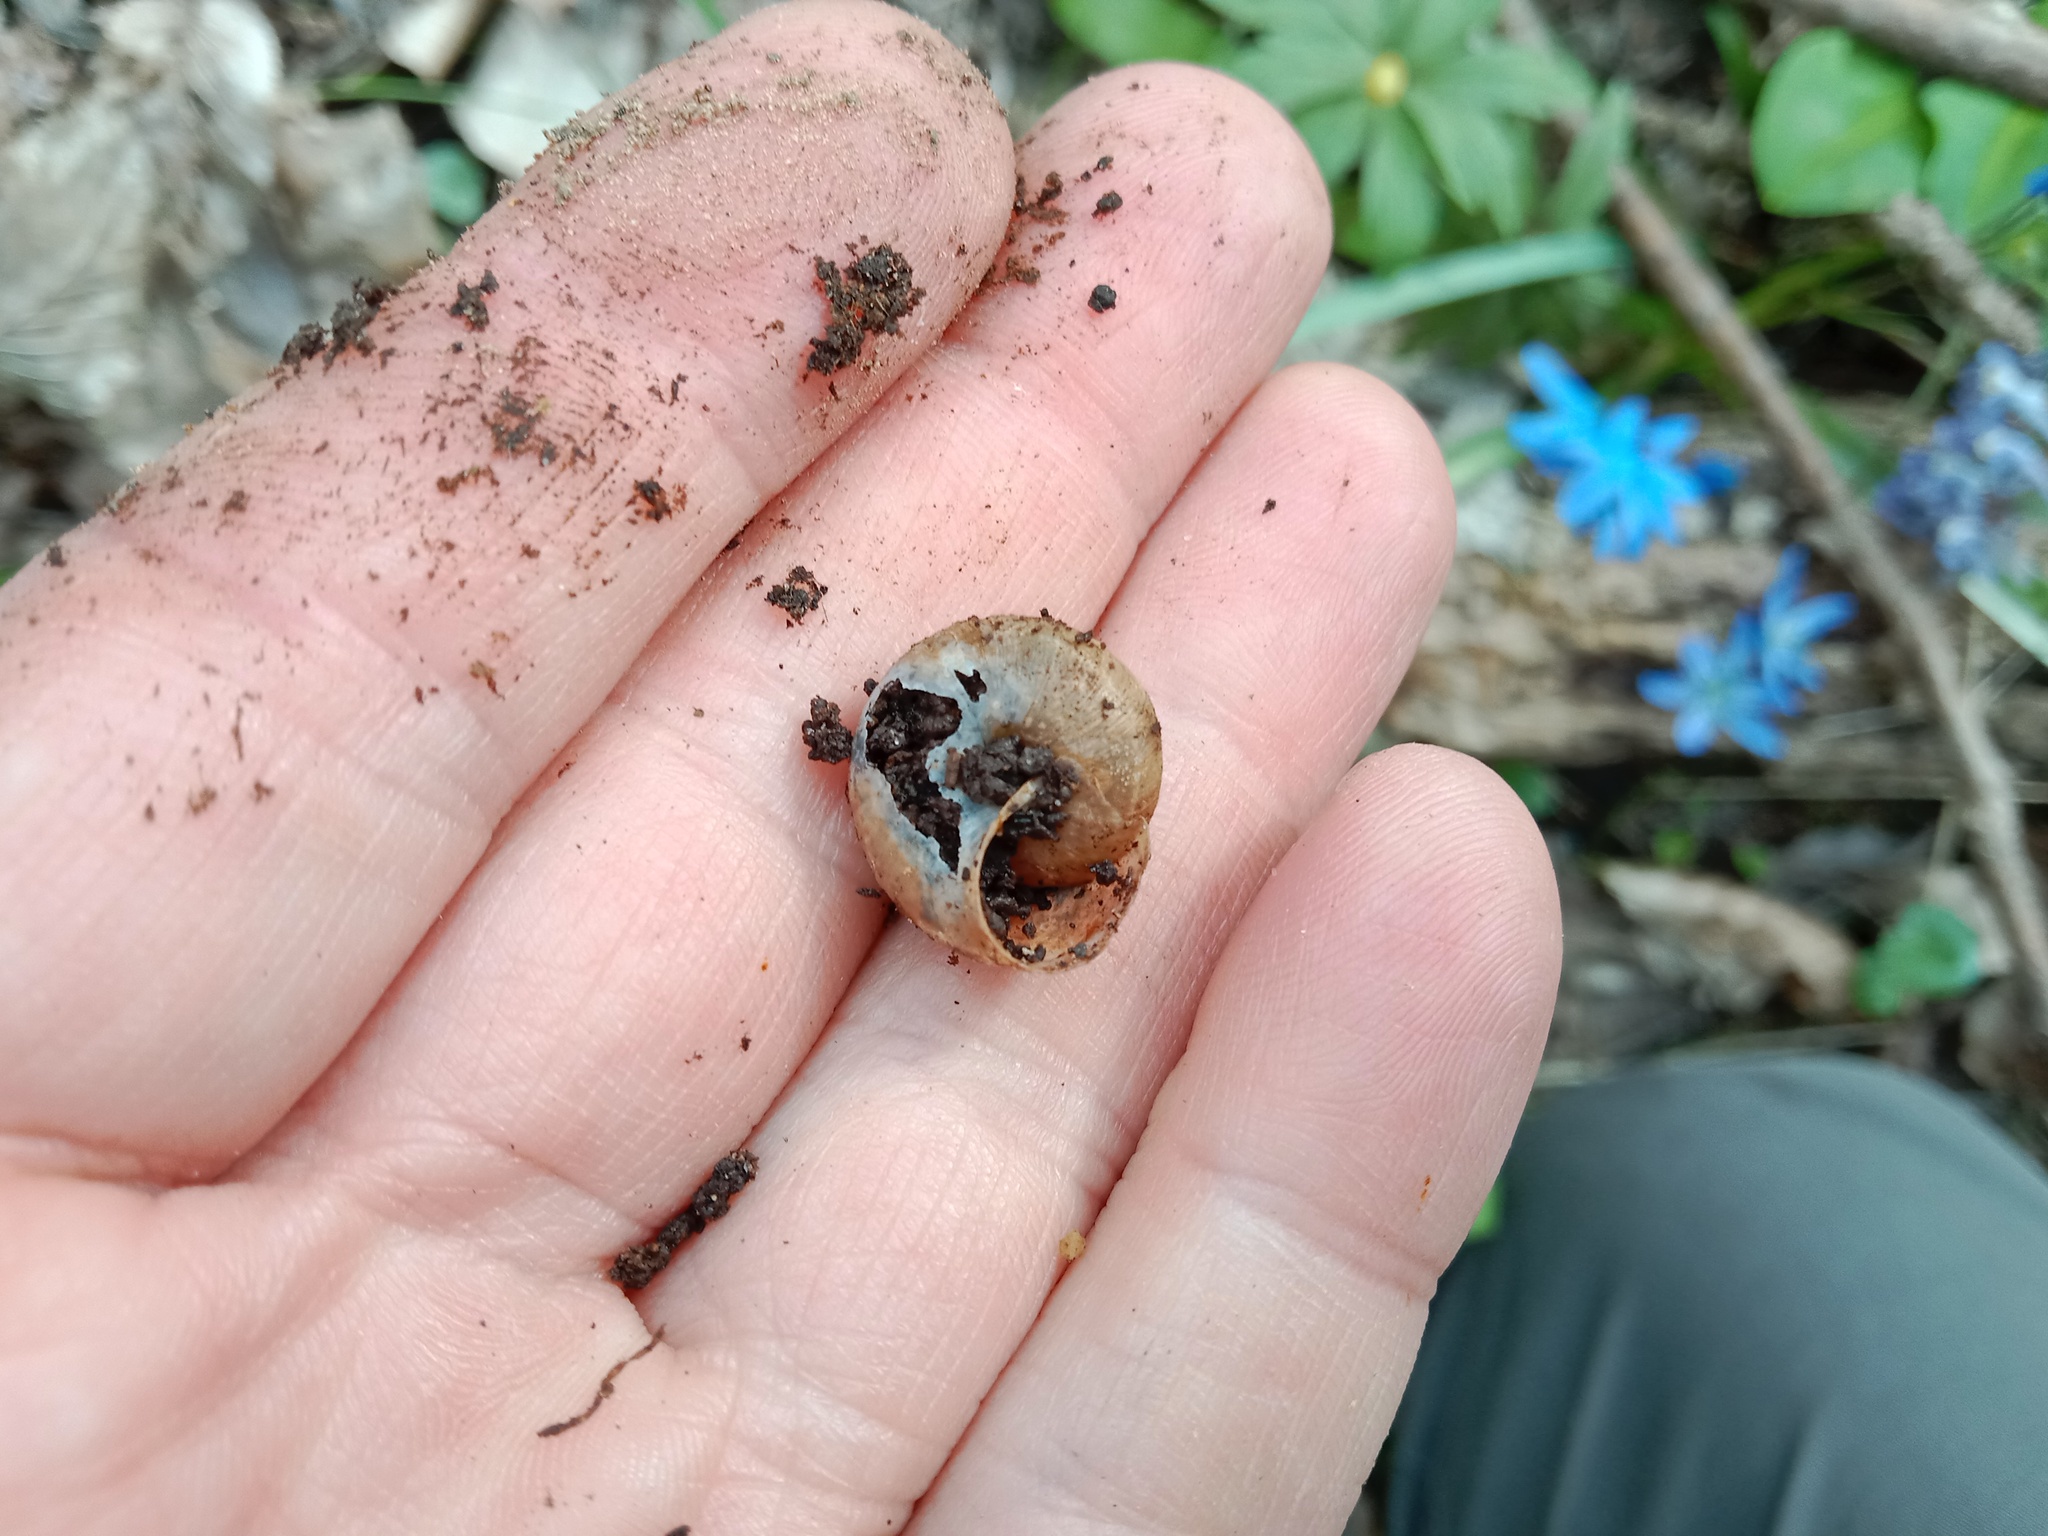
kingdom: Animalia
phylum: Mollusca
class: Gastropoda
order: Stylommatophora
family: Hygromiidae
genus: Euomphalia
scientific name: Euomphalia strigella
